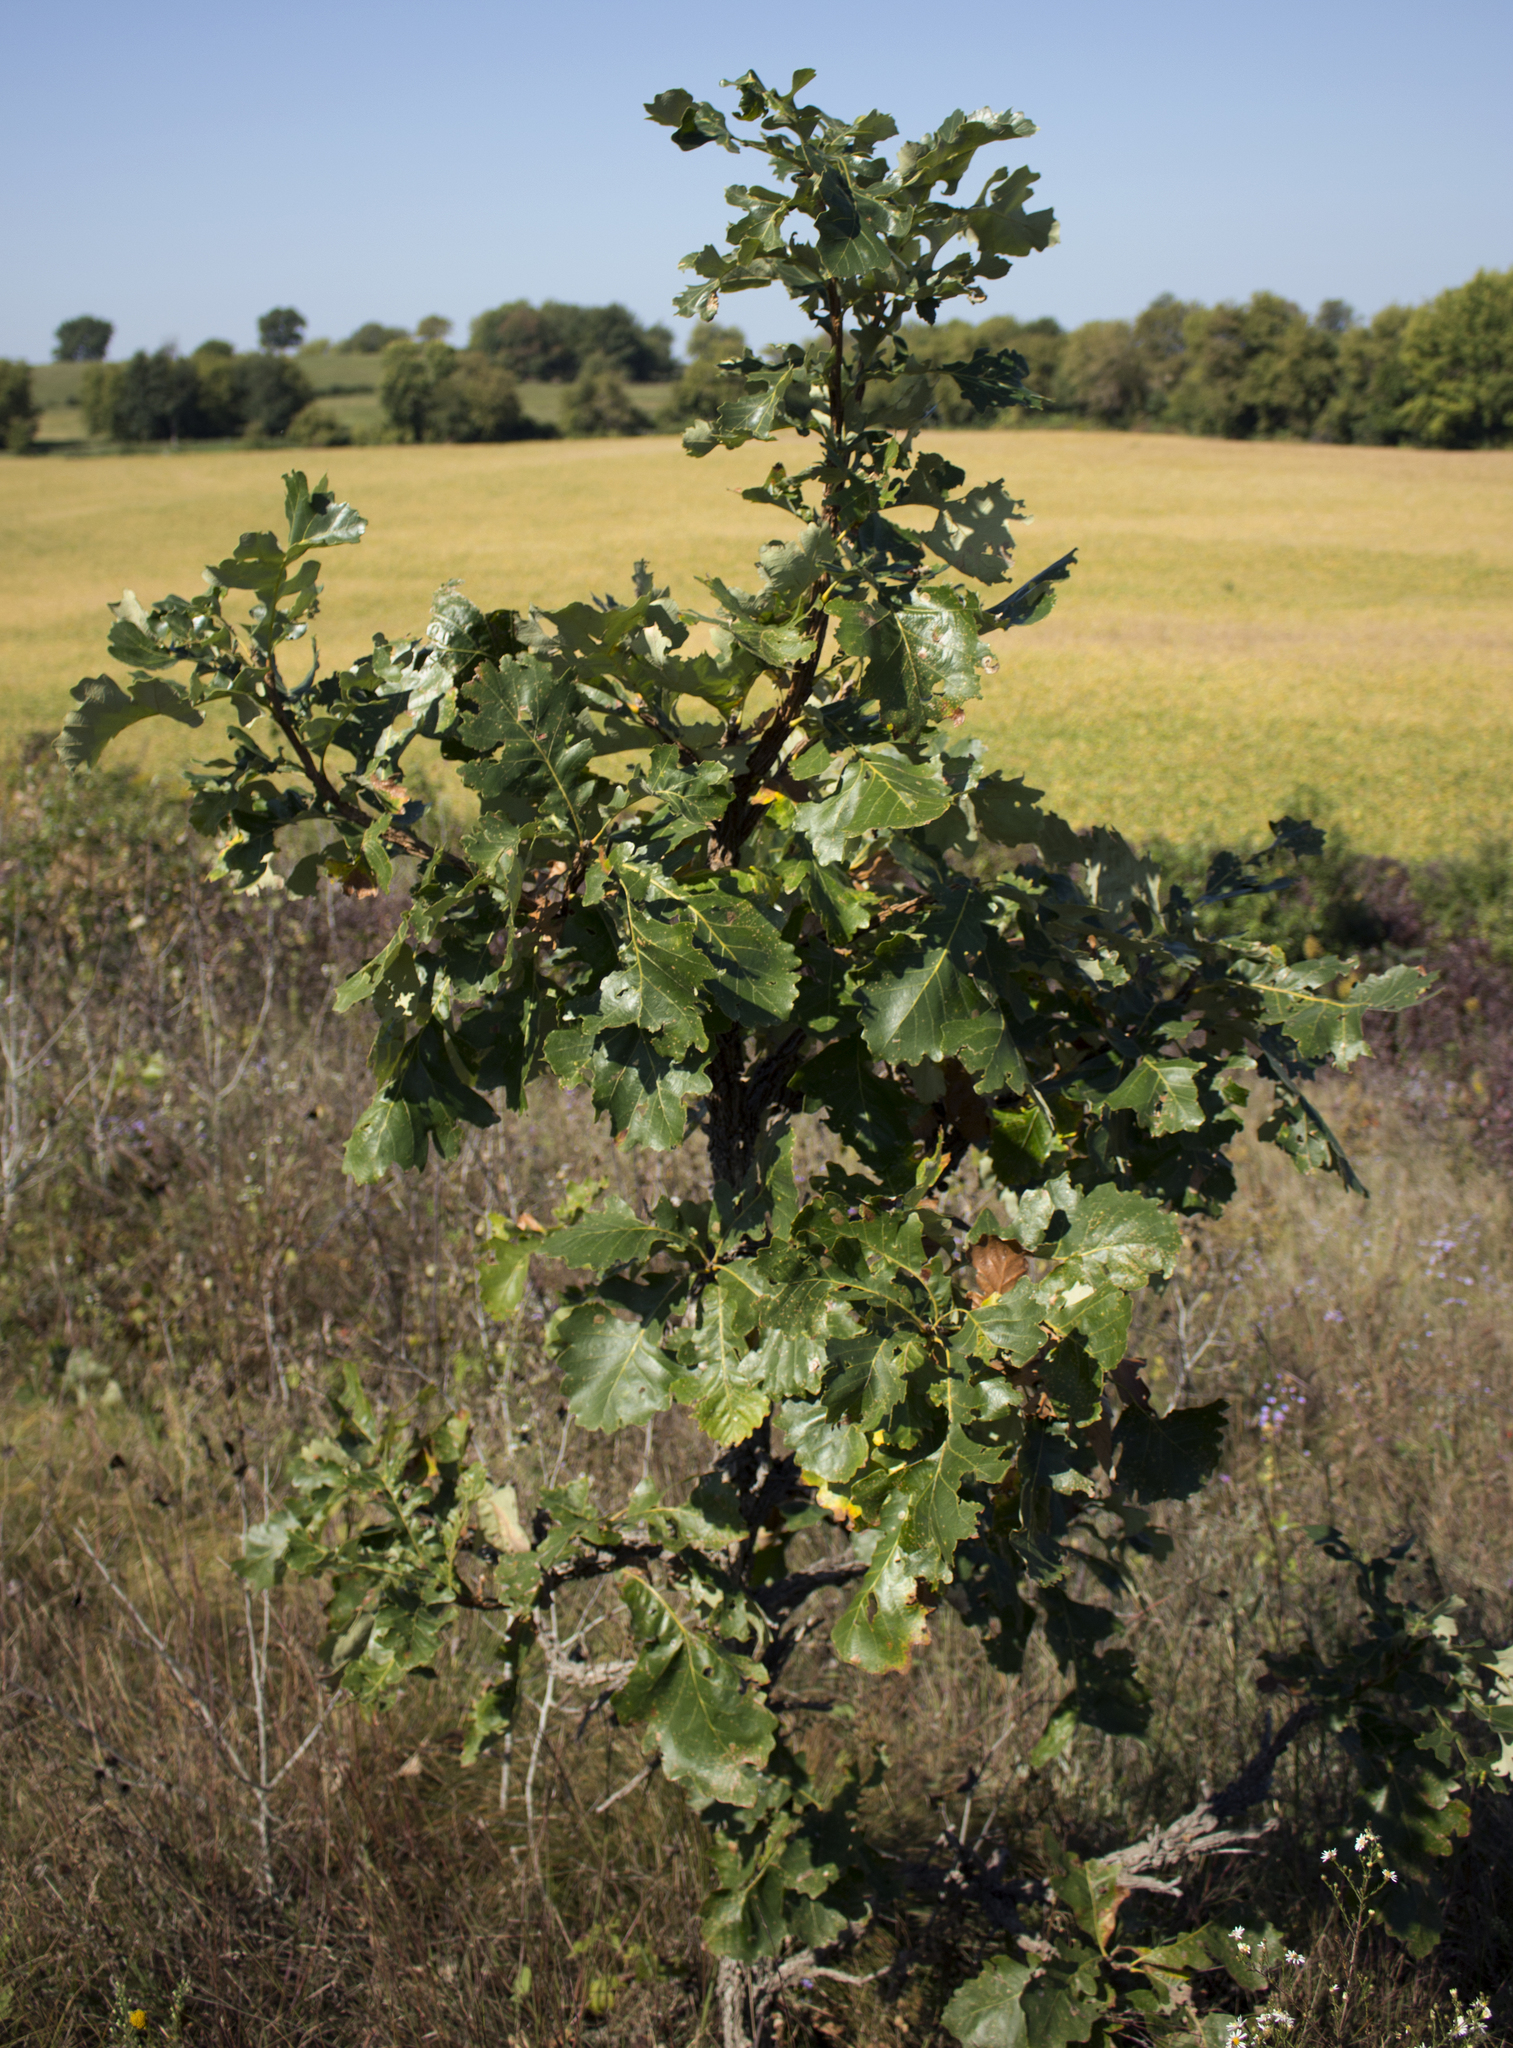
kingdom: Plantae
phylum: Tracheophyta
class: Magnoliopsida
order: Fagales
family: Fagaceae
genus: Quercus
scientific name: Quercus macrocarpa
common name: Bur oak
